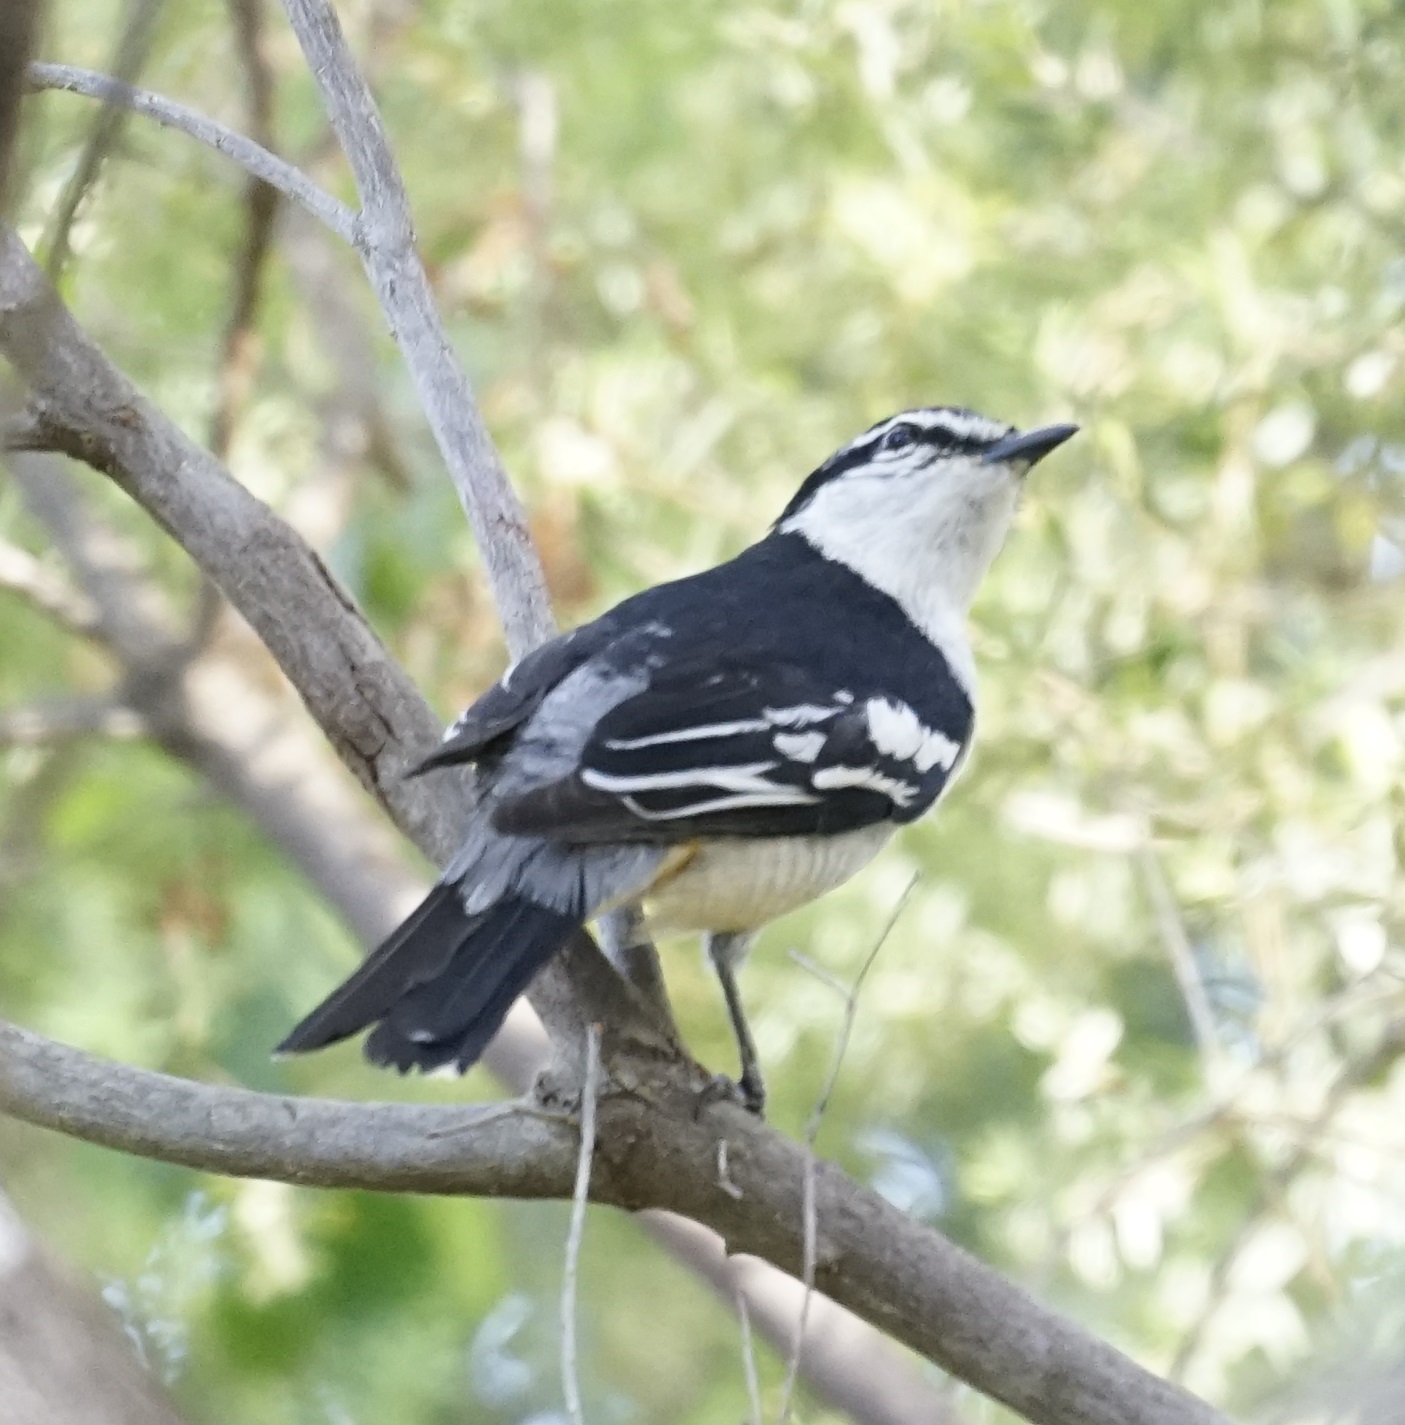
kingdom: Animalia
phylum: Chordata
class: Aves
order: Passeriformes
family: Campephagidae
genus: Lalage
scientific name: Lalage leucomela
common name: Varied triller
